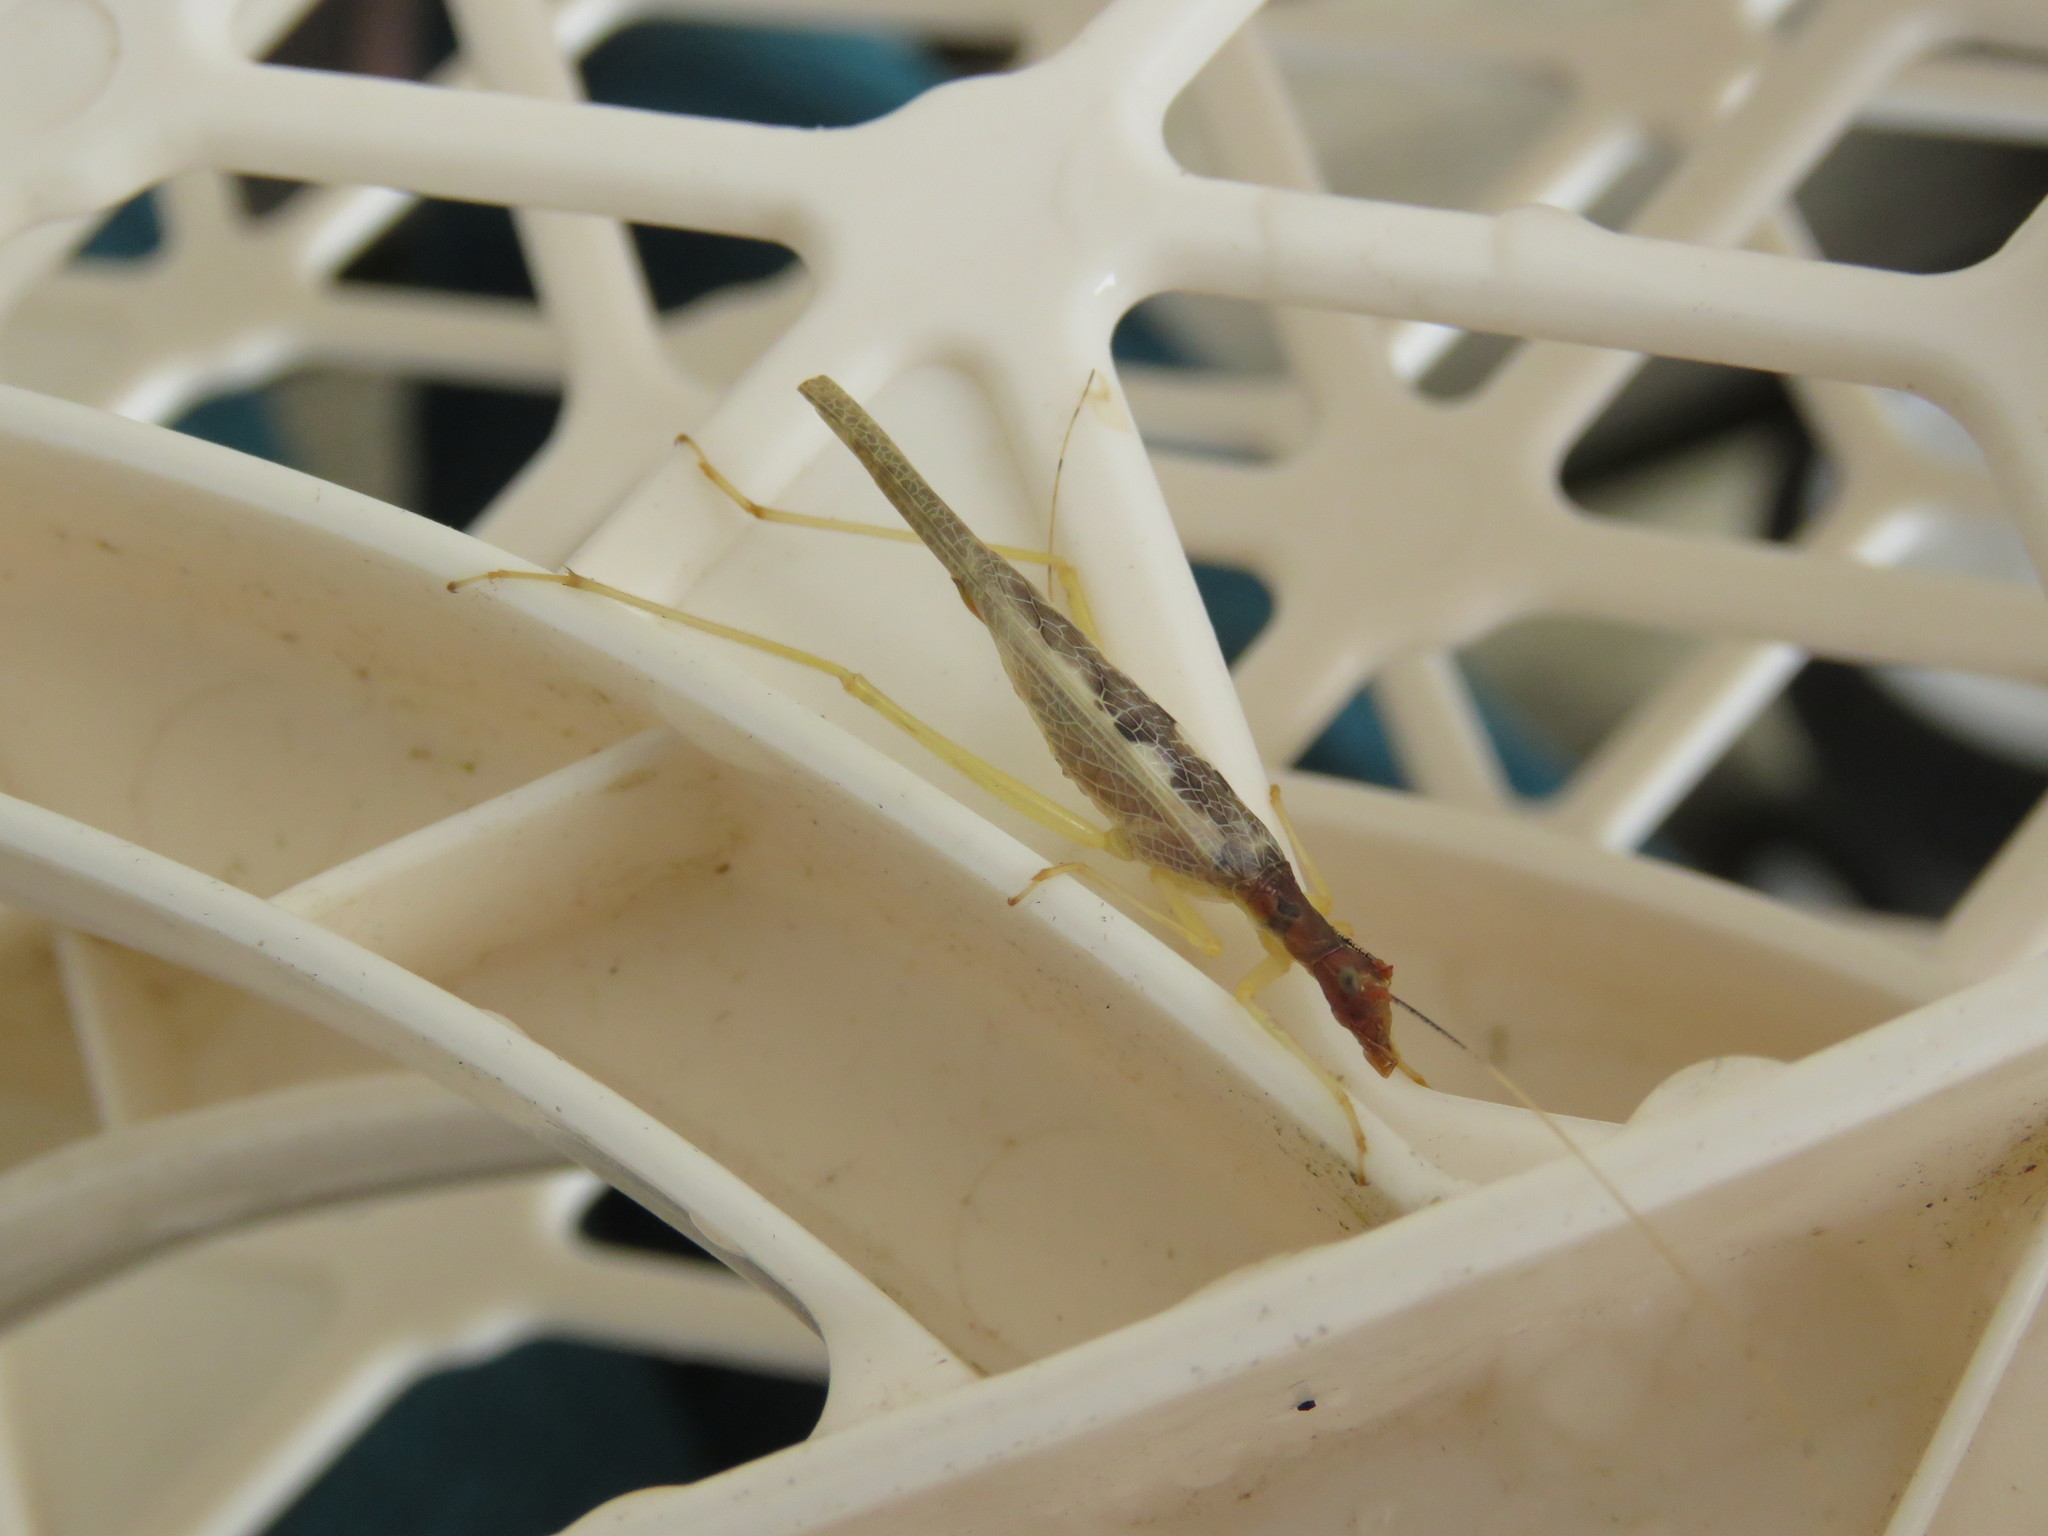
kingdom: Animalia
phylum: Arthropoda
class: Insecta
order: Orthoptera
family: Gryllidae
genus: Neoxabea
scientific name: Neoxabea bipunctata
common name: Two-spotted tree cricket
